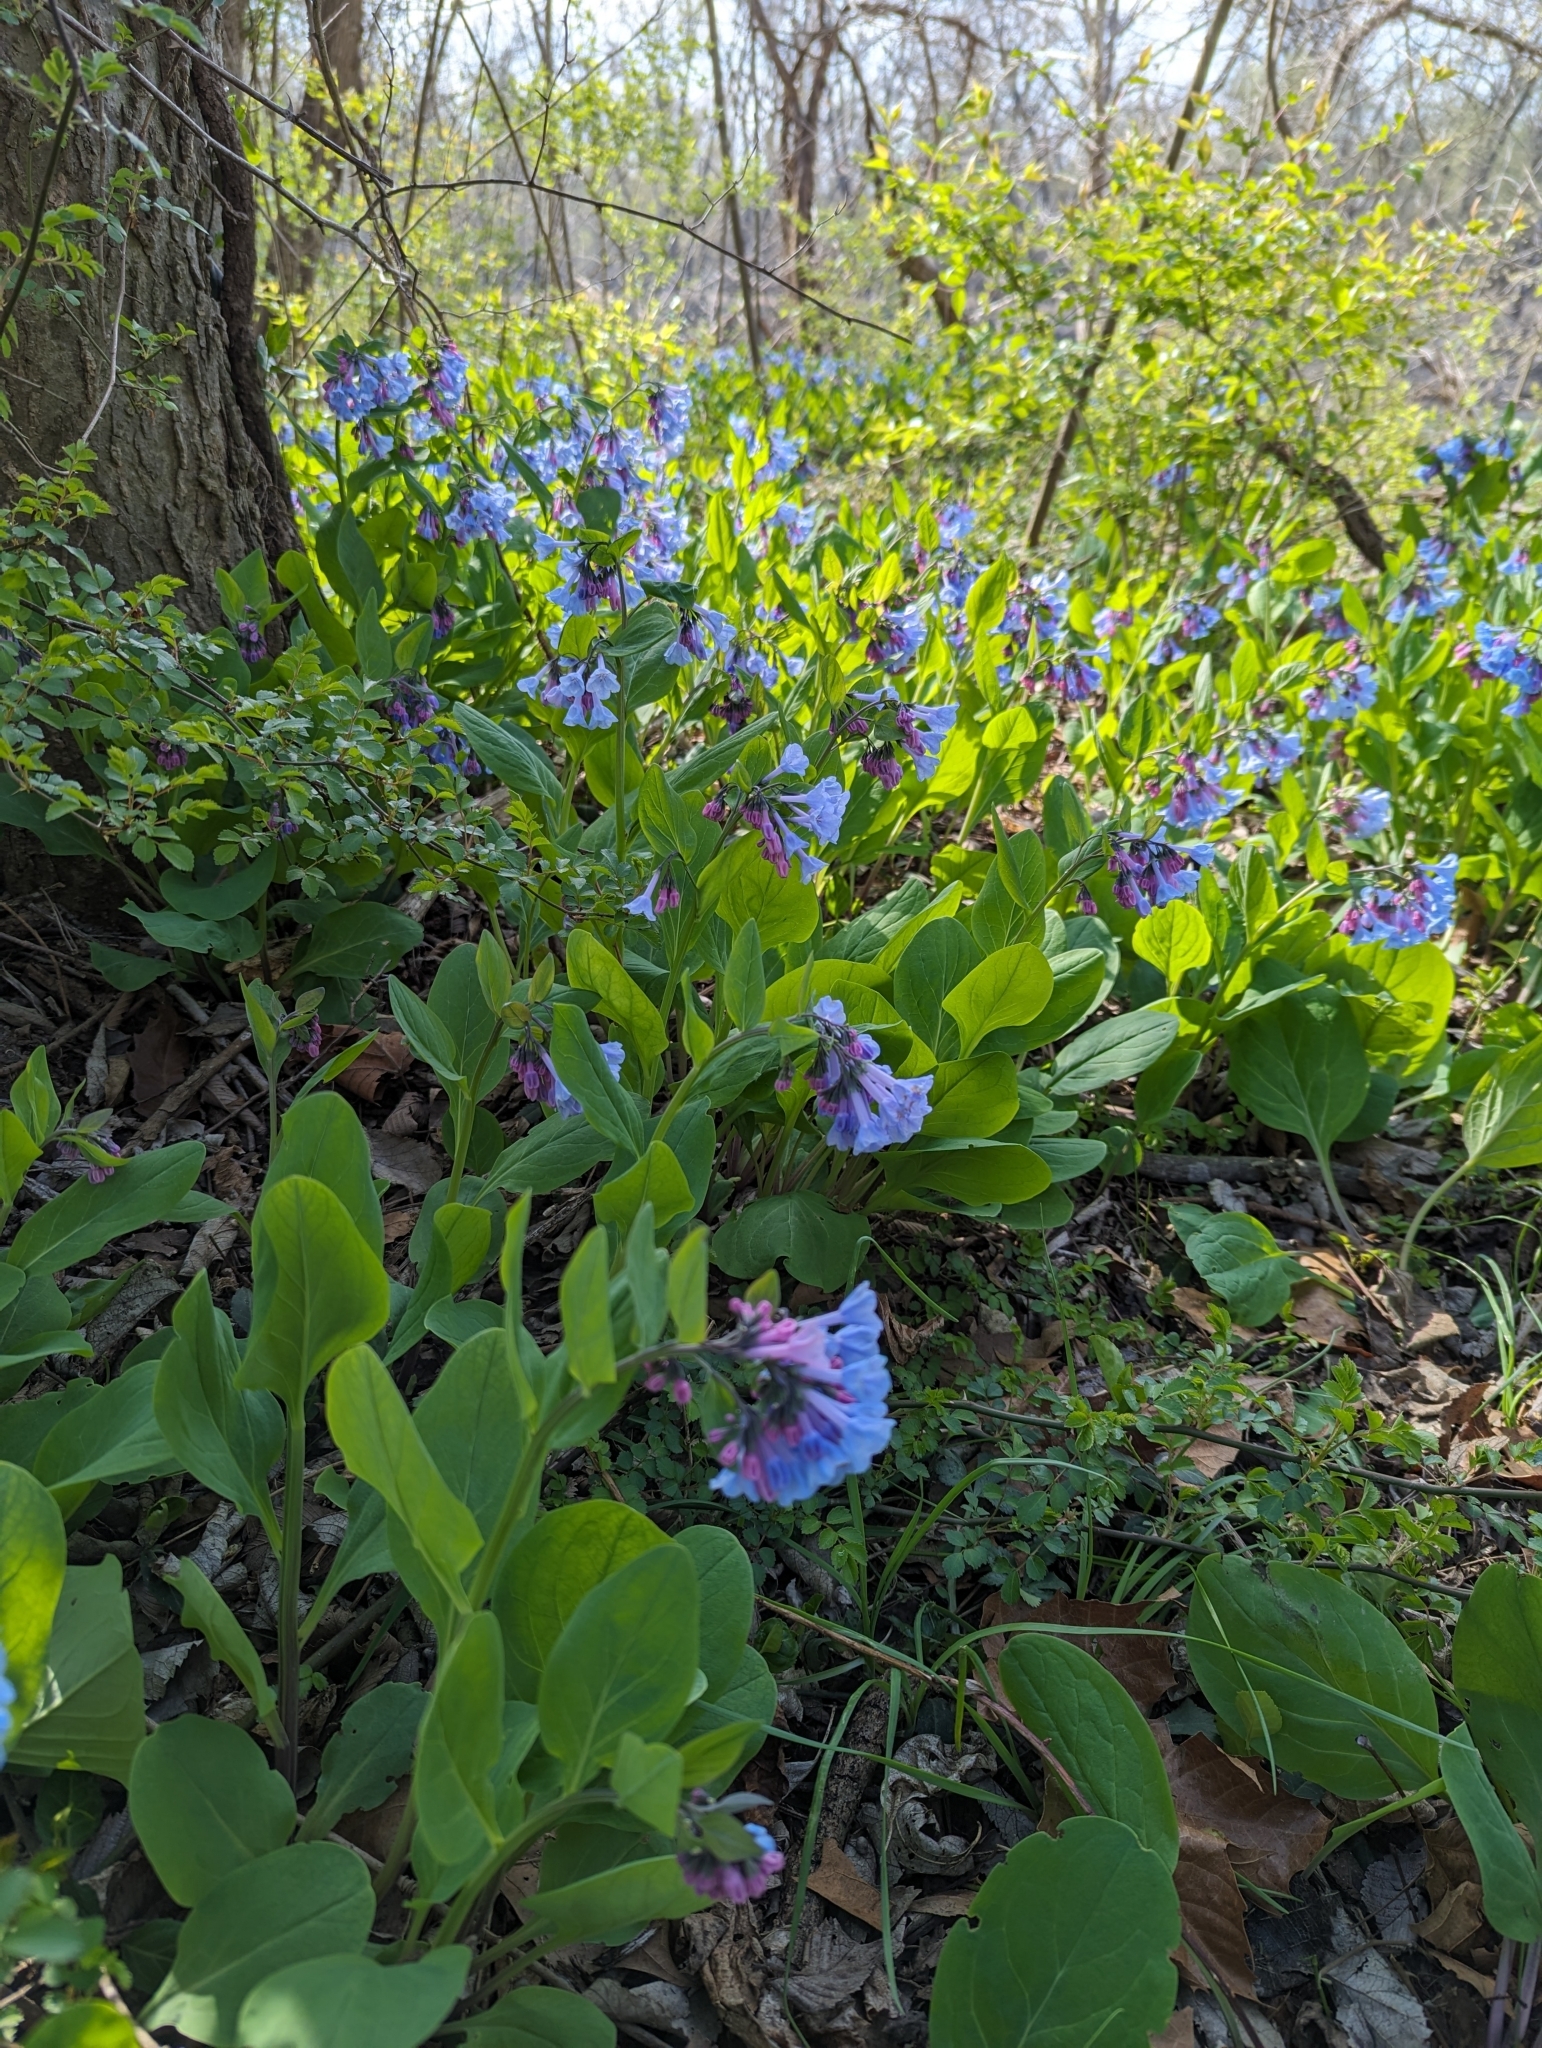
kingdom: Plantae
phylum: Tracheophyta
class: Magnoliopsida
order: Boraginales
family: Boraginaceae
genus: Mertensia
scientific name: Mertensia virginica
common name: Virginia bluebells
